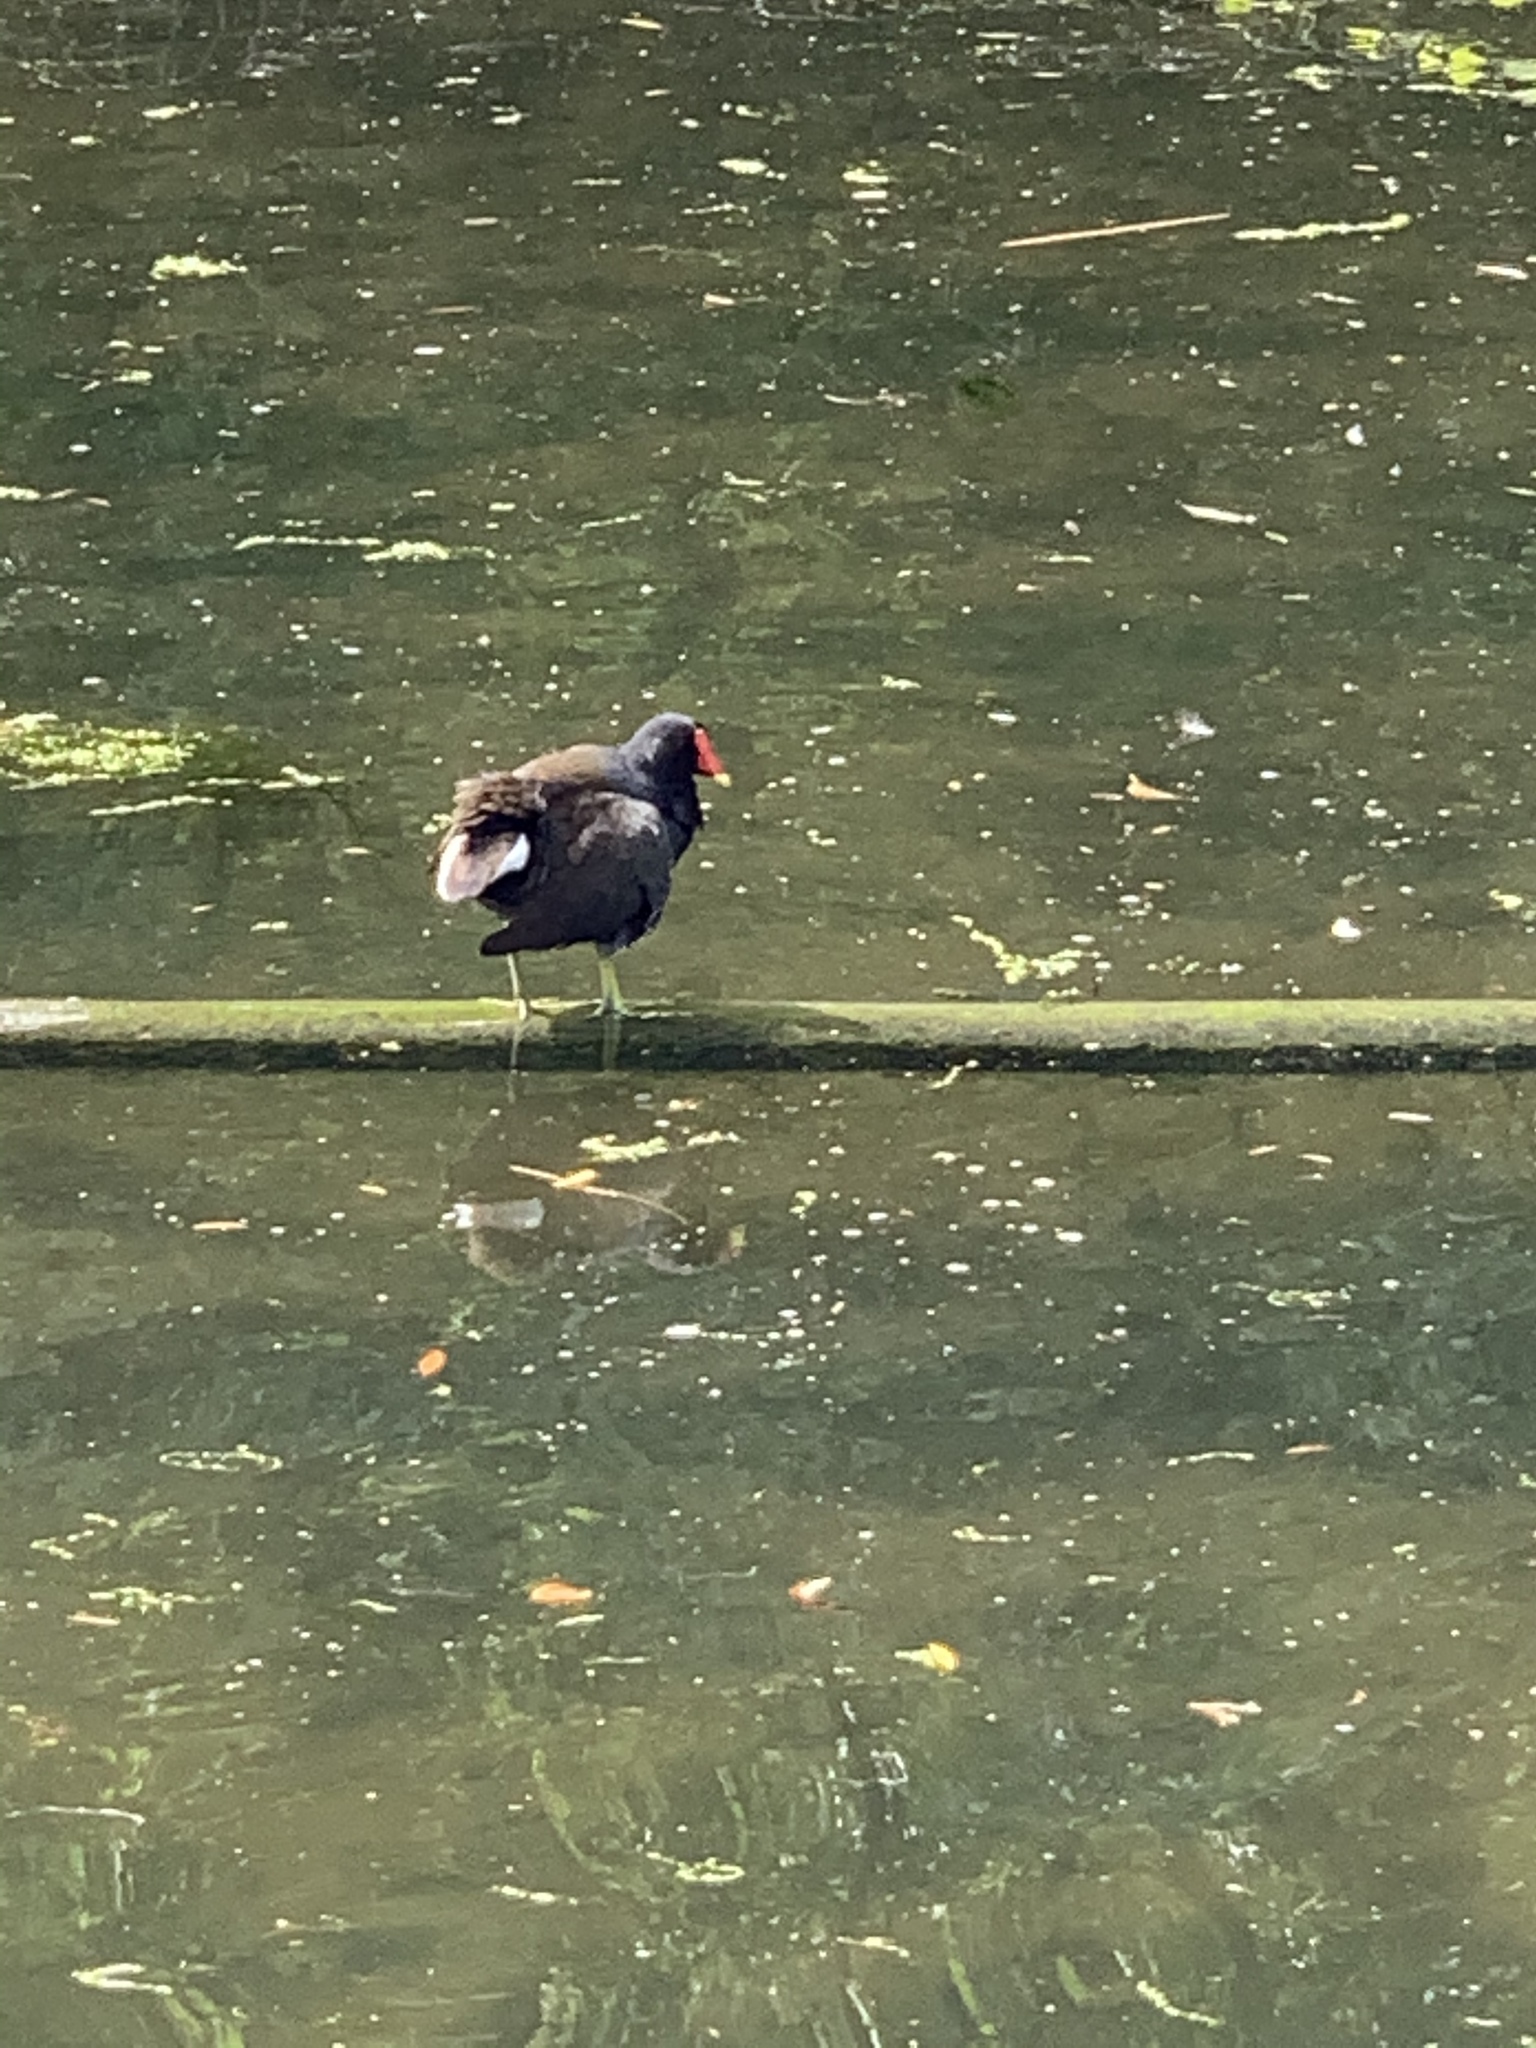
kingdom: Animalia
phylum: Chordata
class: Aves
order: Gruiformes
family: Rallidae
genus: Gallinula
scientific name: Gallinula chloropus
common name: Common moorhen
